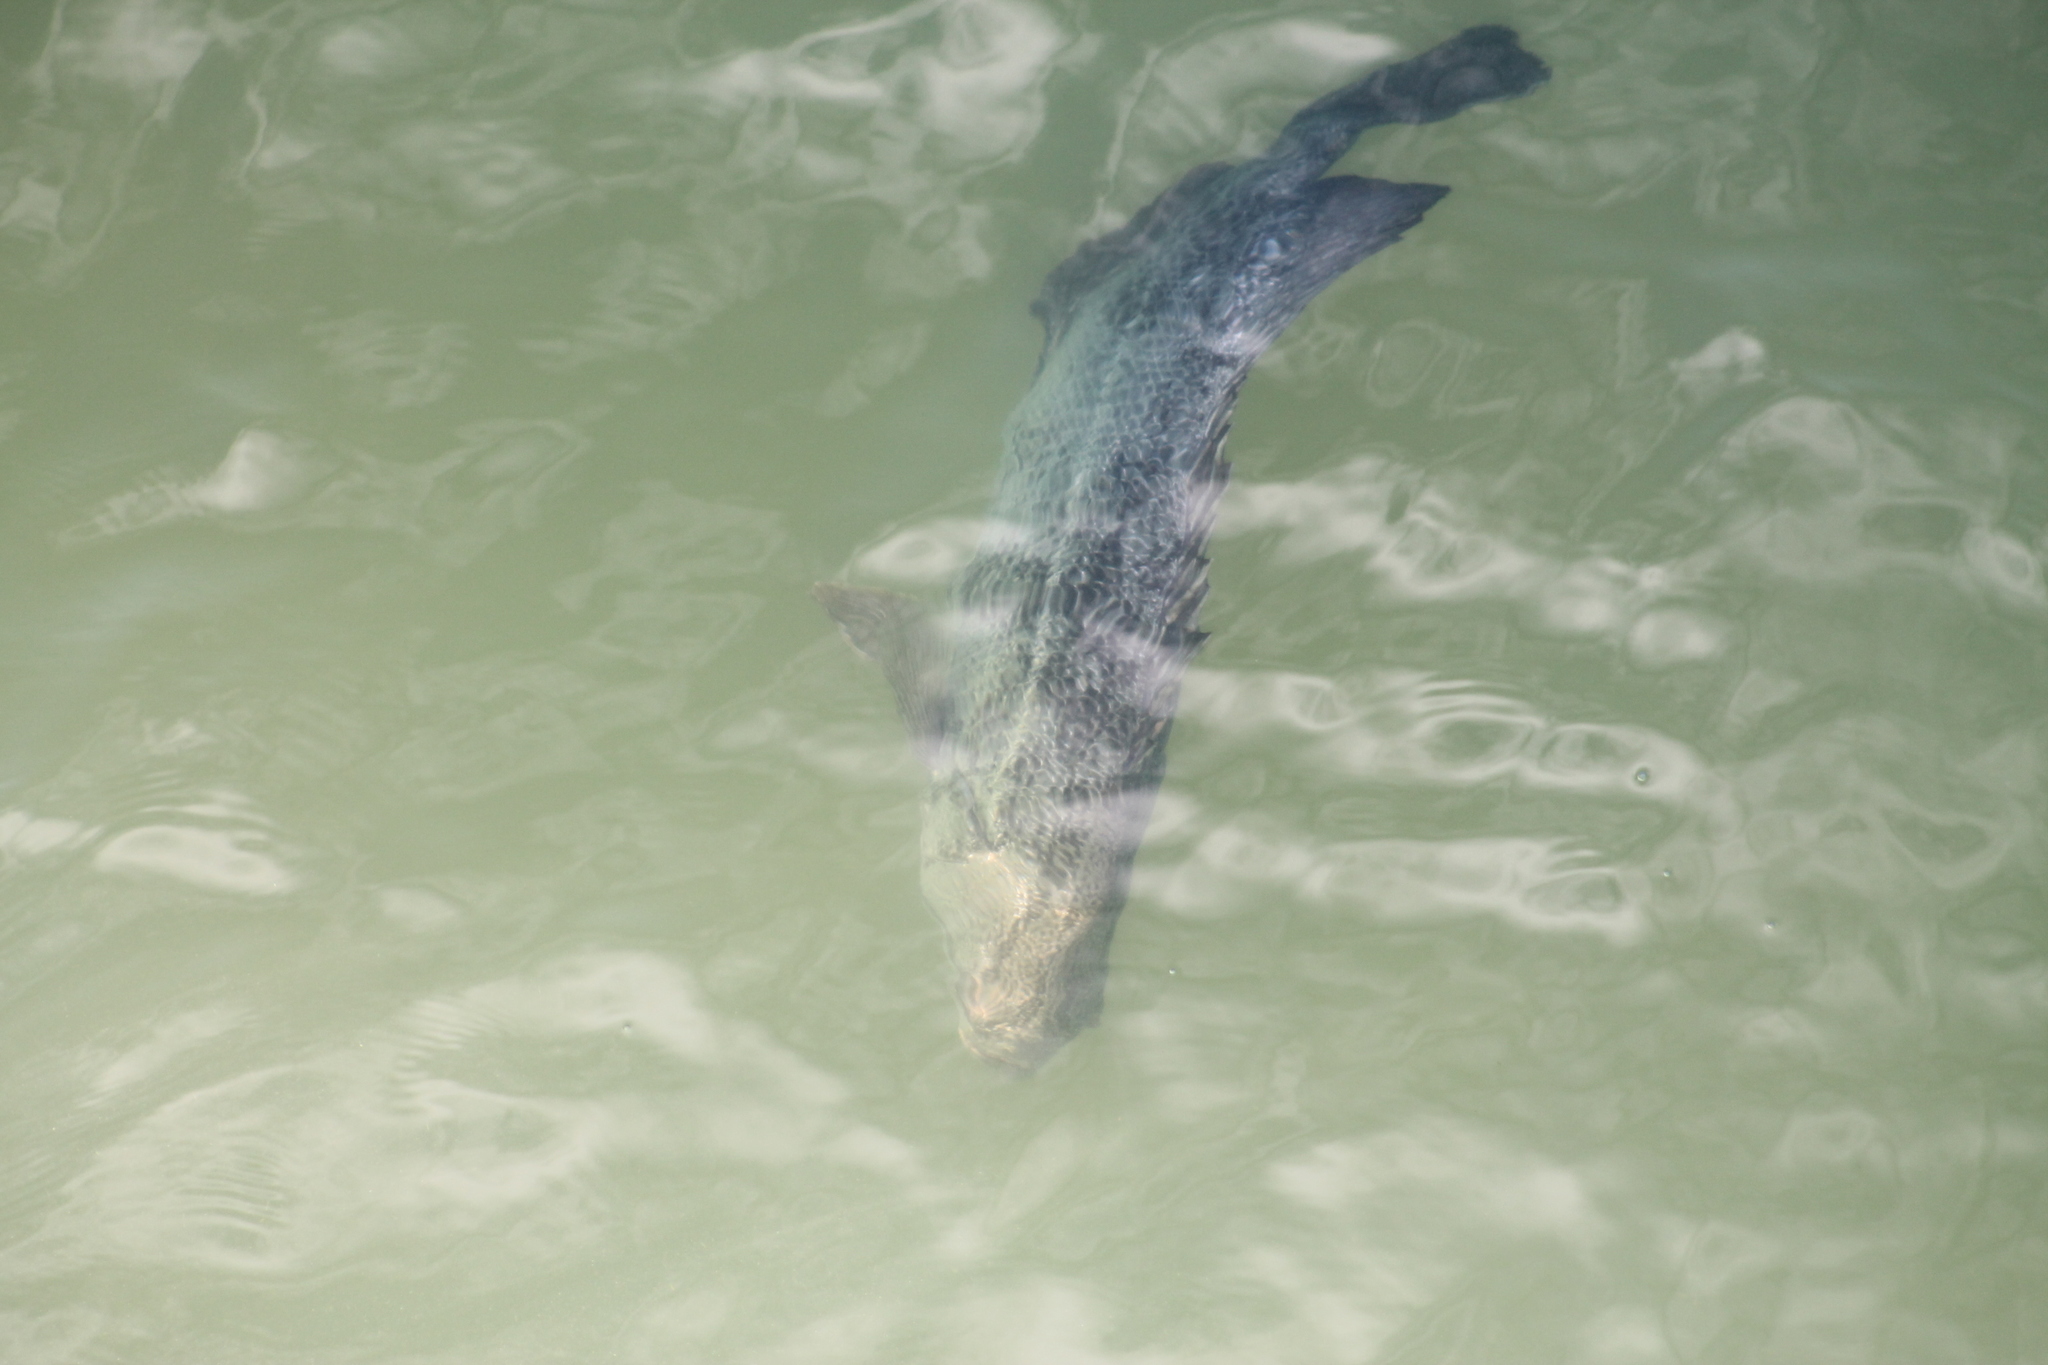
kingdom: Animalia
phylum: Chordata
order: Perciformes
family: Lobotidae
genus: Lobotes
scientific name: Lobotes surinamensis
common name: Atlantic tripletail
